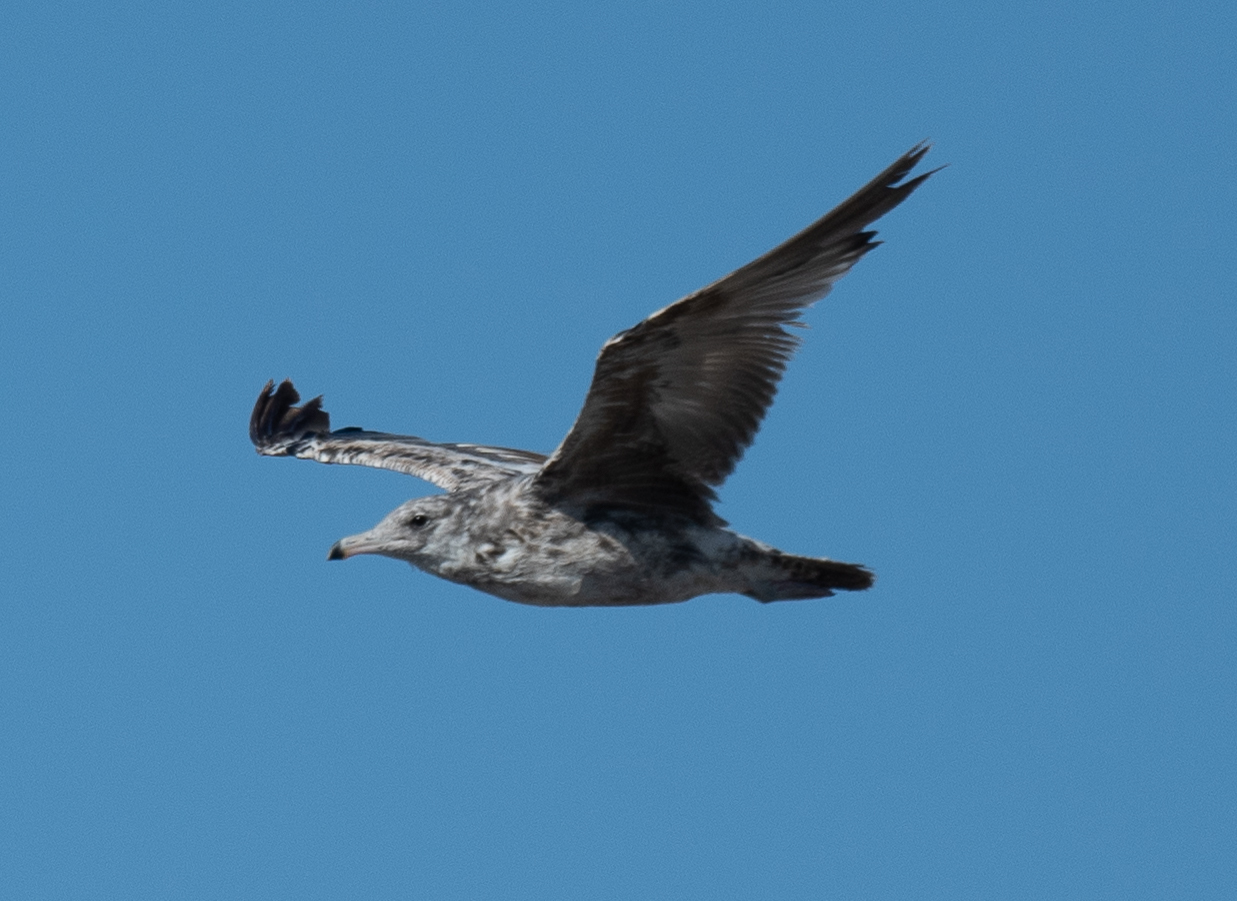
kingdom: Animalia
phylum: Chordata
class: Aves
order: Charadriiformes
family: Laridae
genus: Larus
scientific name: Larus californicus
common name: California gull
